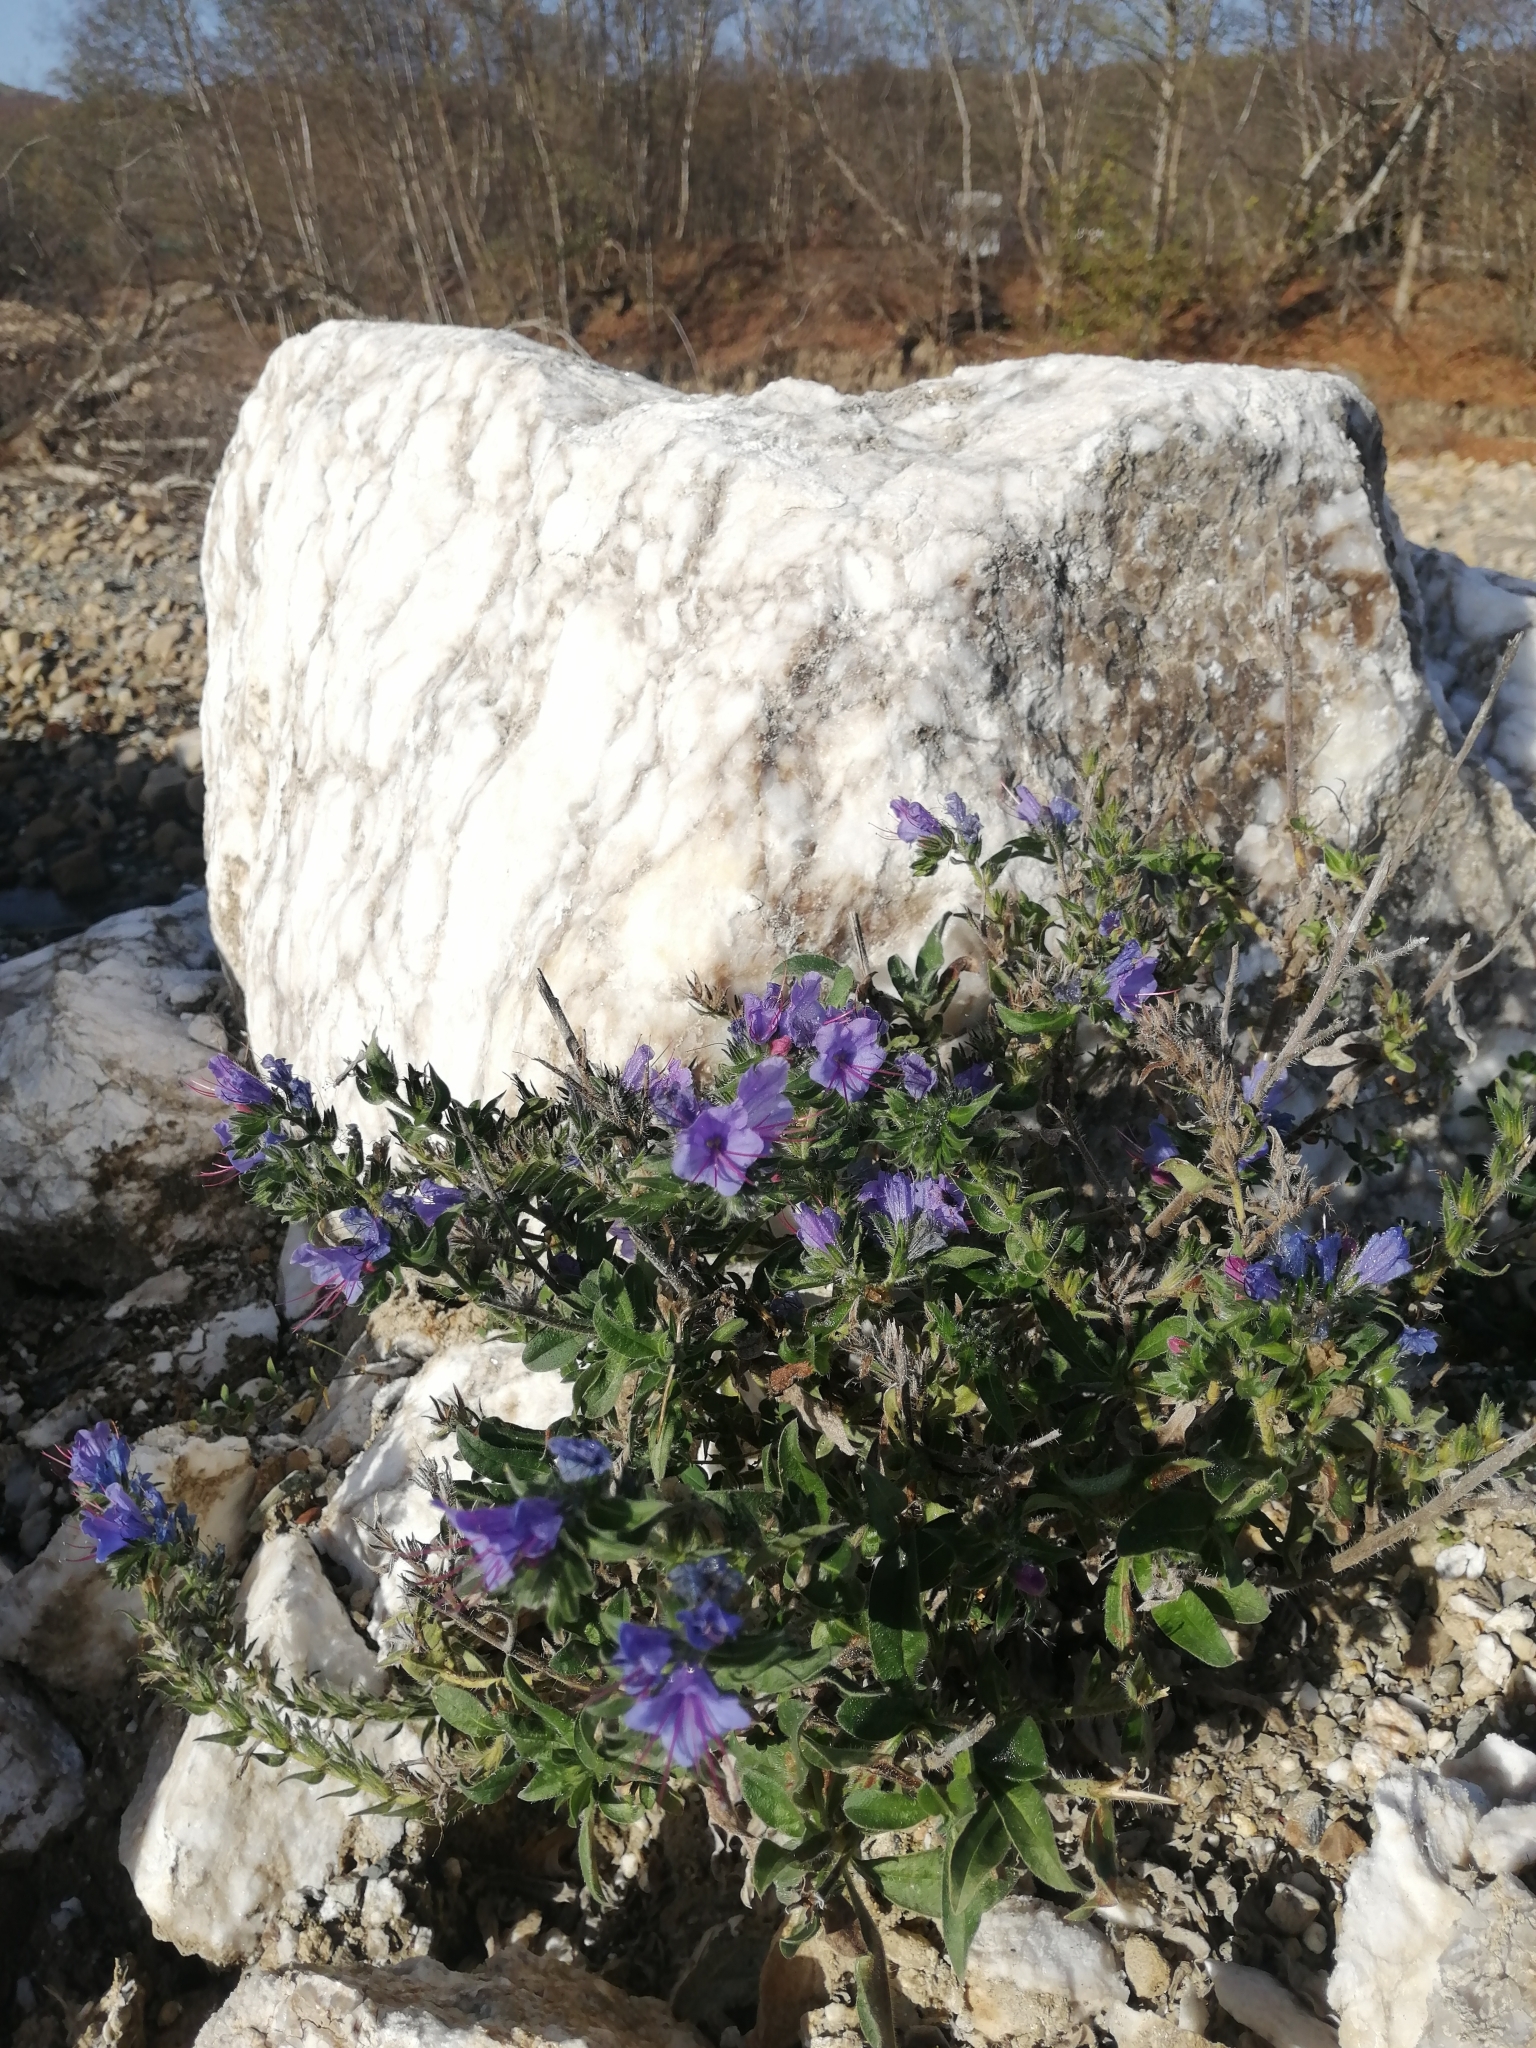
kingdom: Plantae
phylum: Tracheophyta
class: Magnoliopsida
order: Boraginales
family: Boraginaceae
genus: Echium
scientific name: Echium vulgare
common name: Common viper's bugloss
